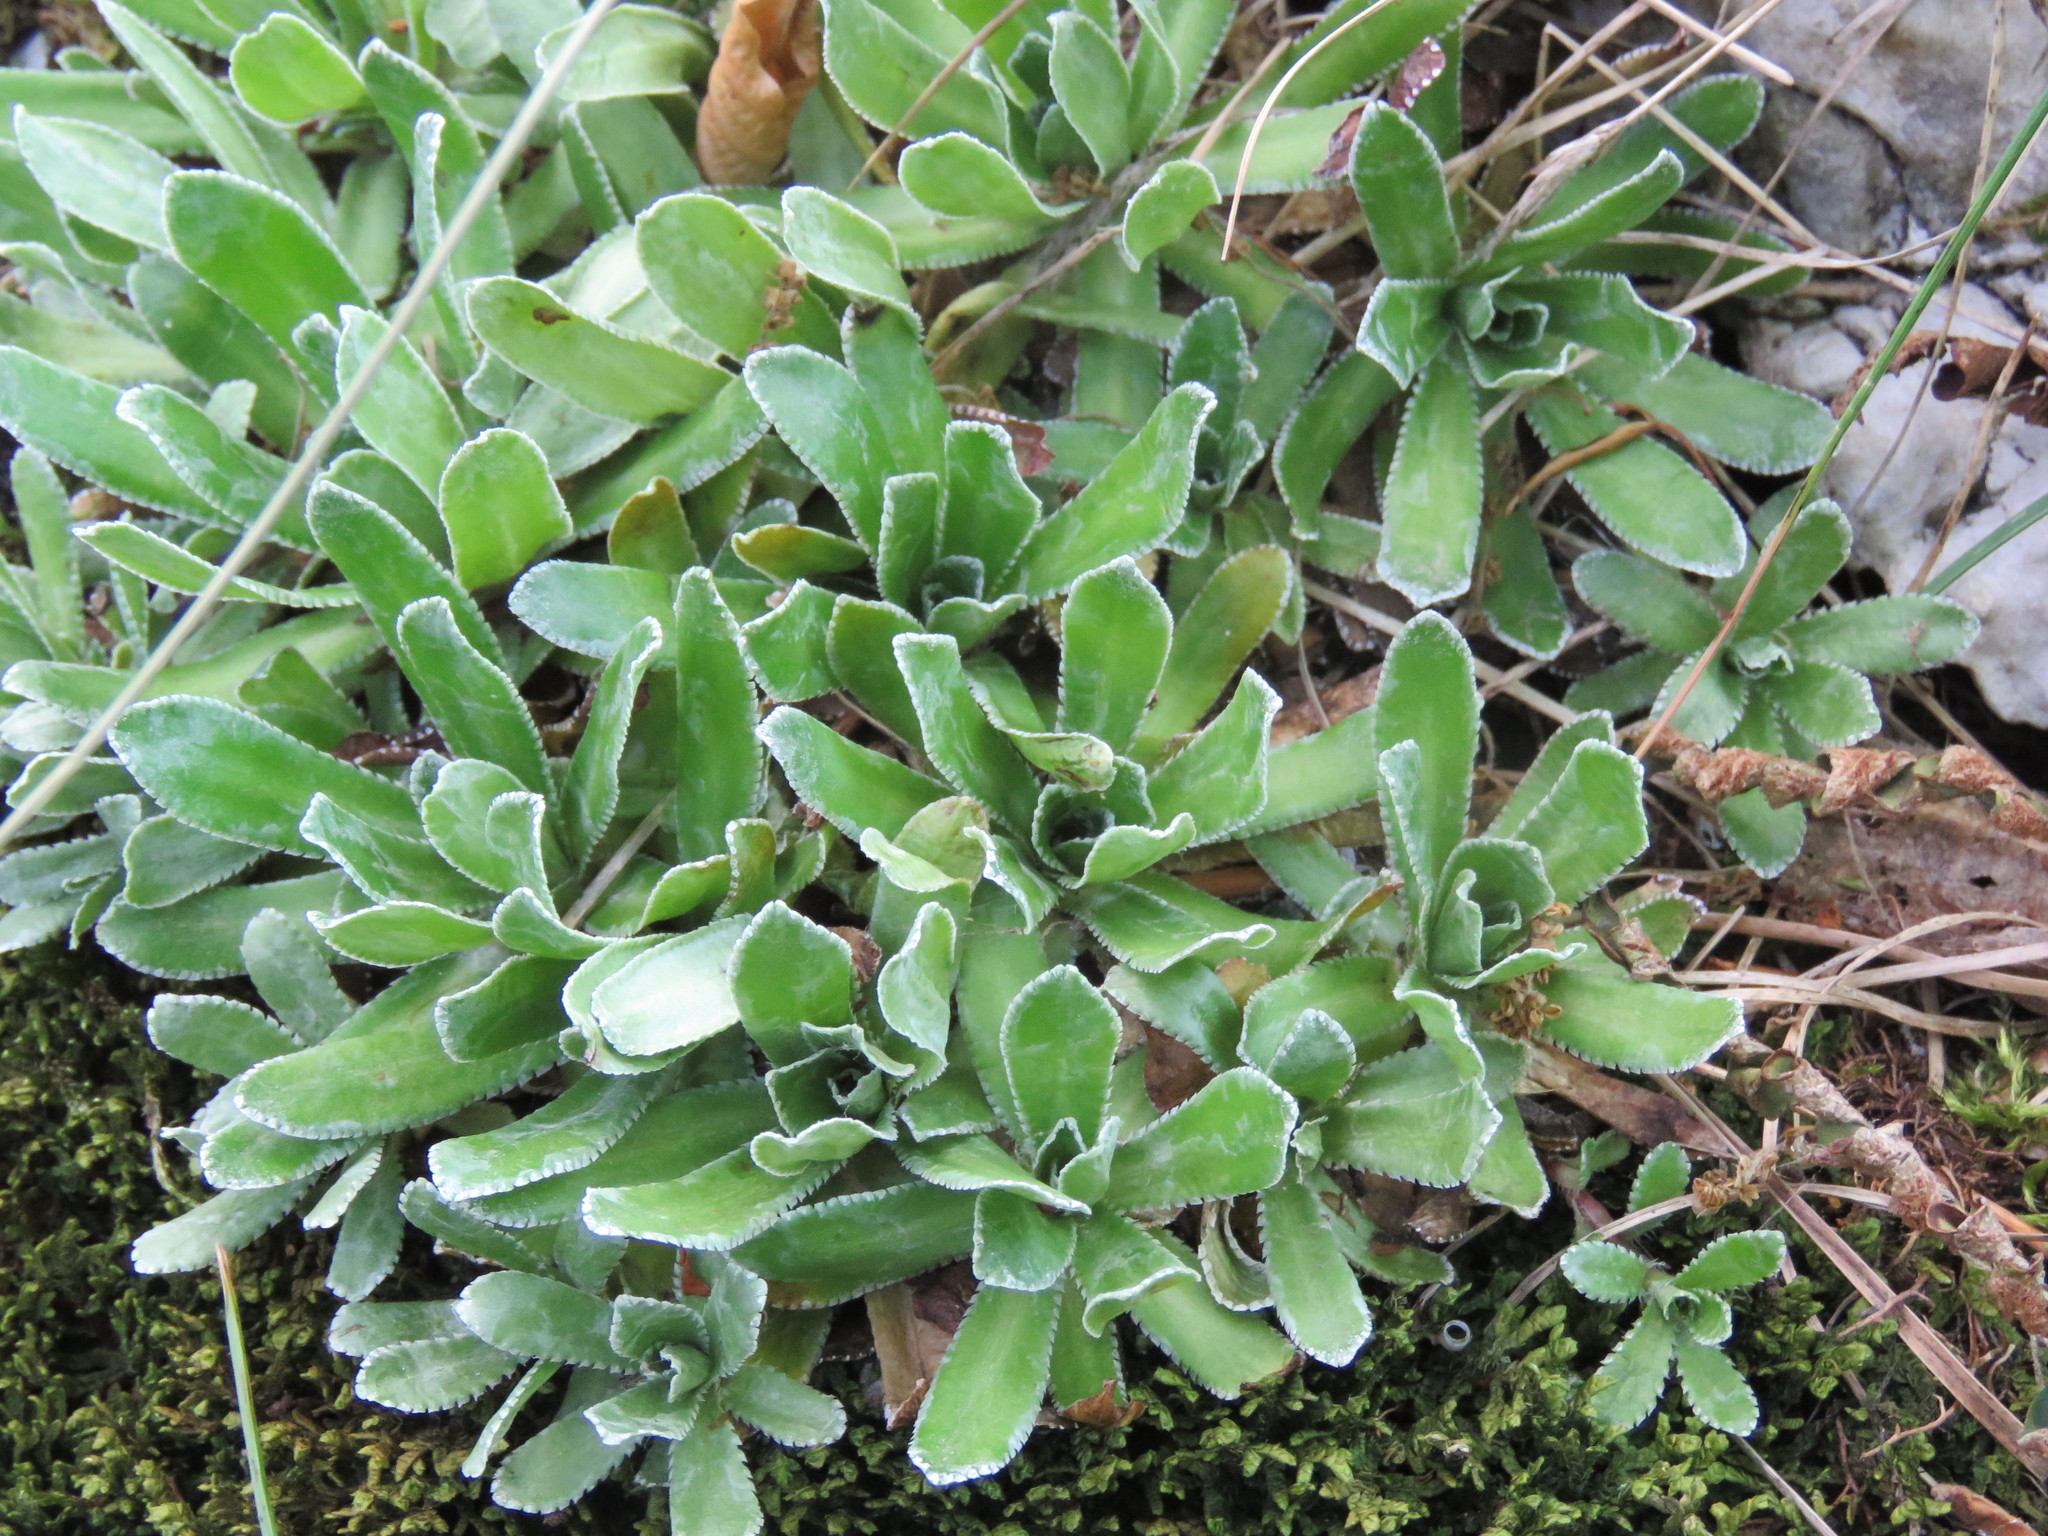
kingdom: Plantae
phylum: Tracheophyta
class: Magnoliopsida
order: Saxifragales
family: Saxifragaceae
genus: Saxifraga
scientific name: Saxifraga paniculata
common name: Livelong saxifrage
